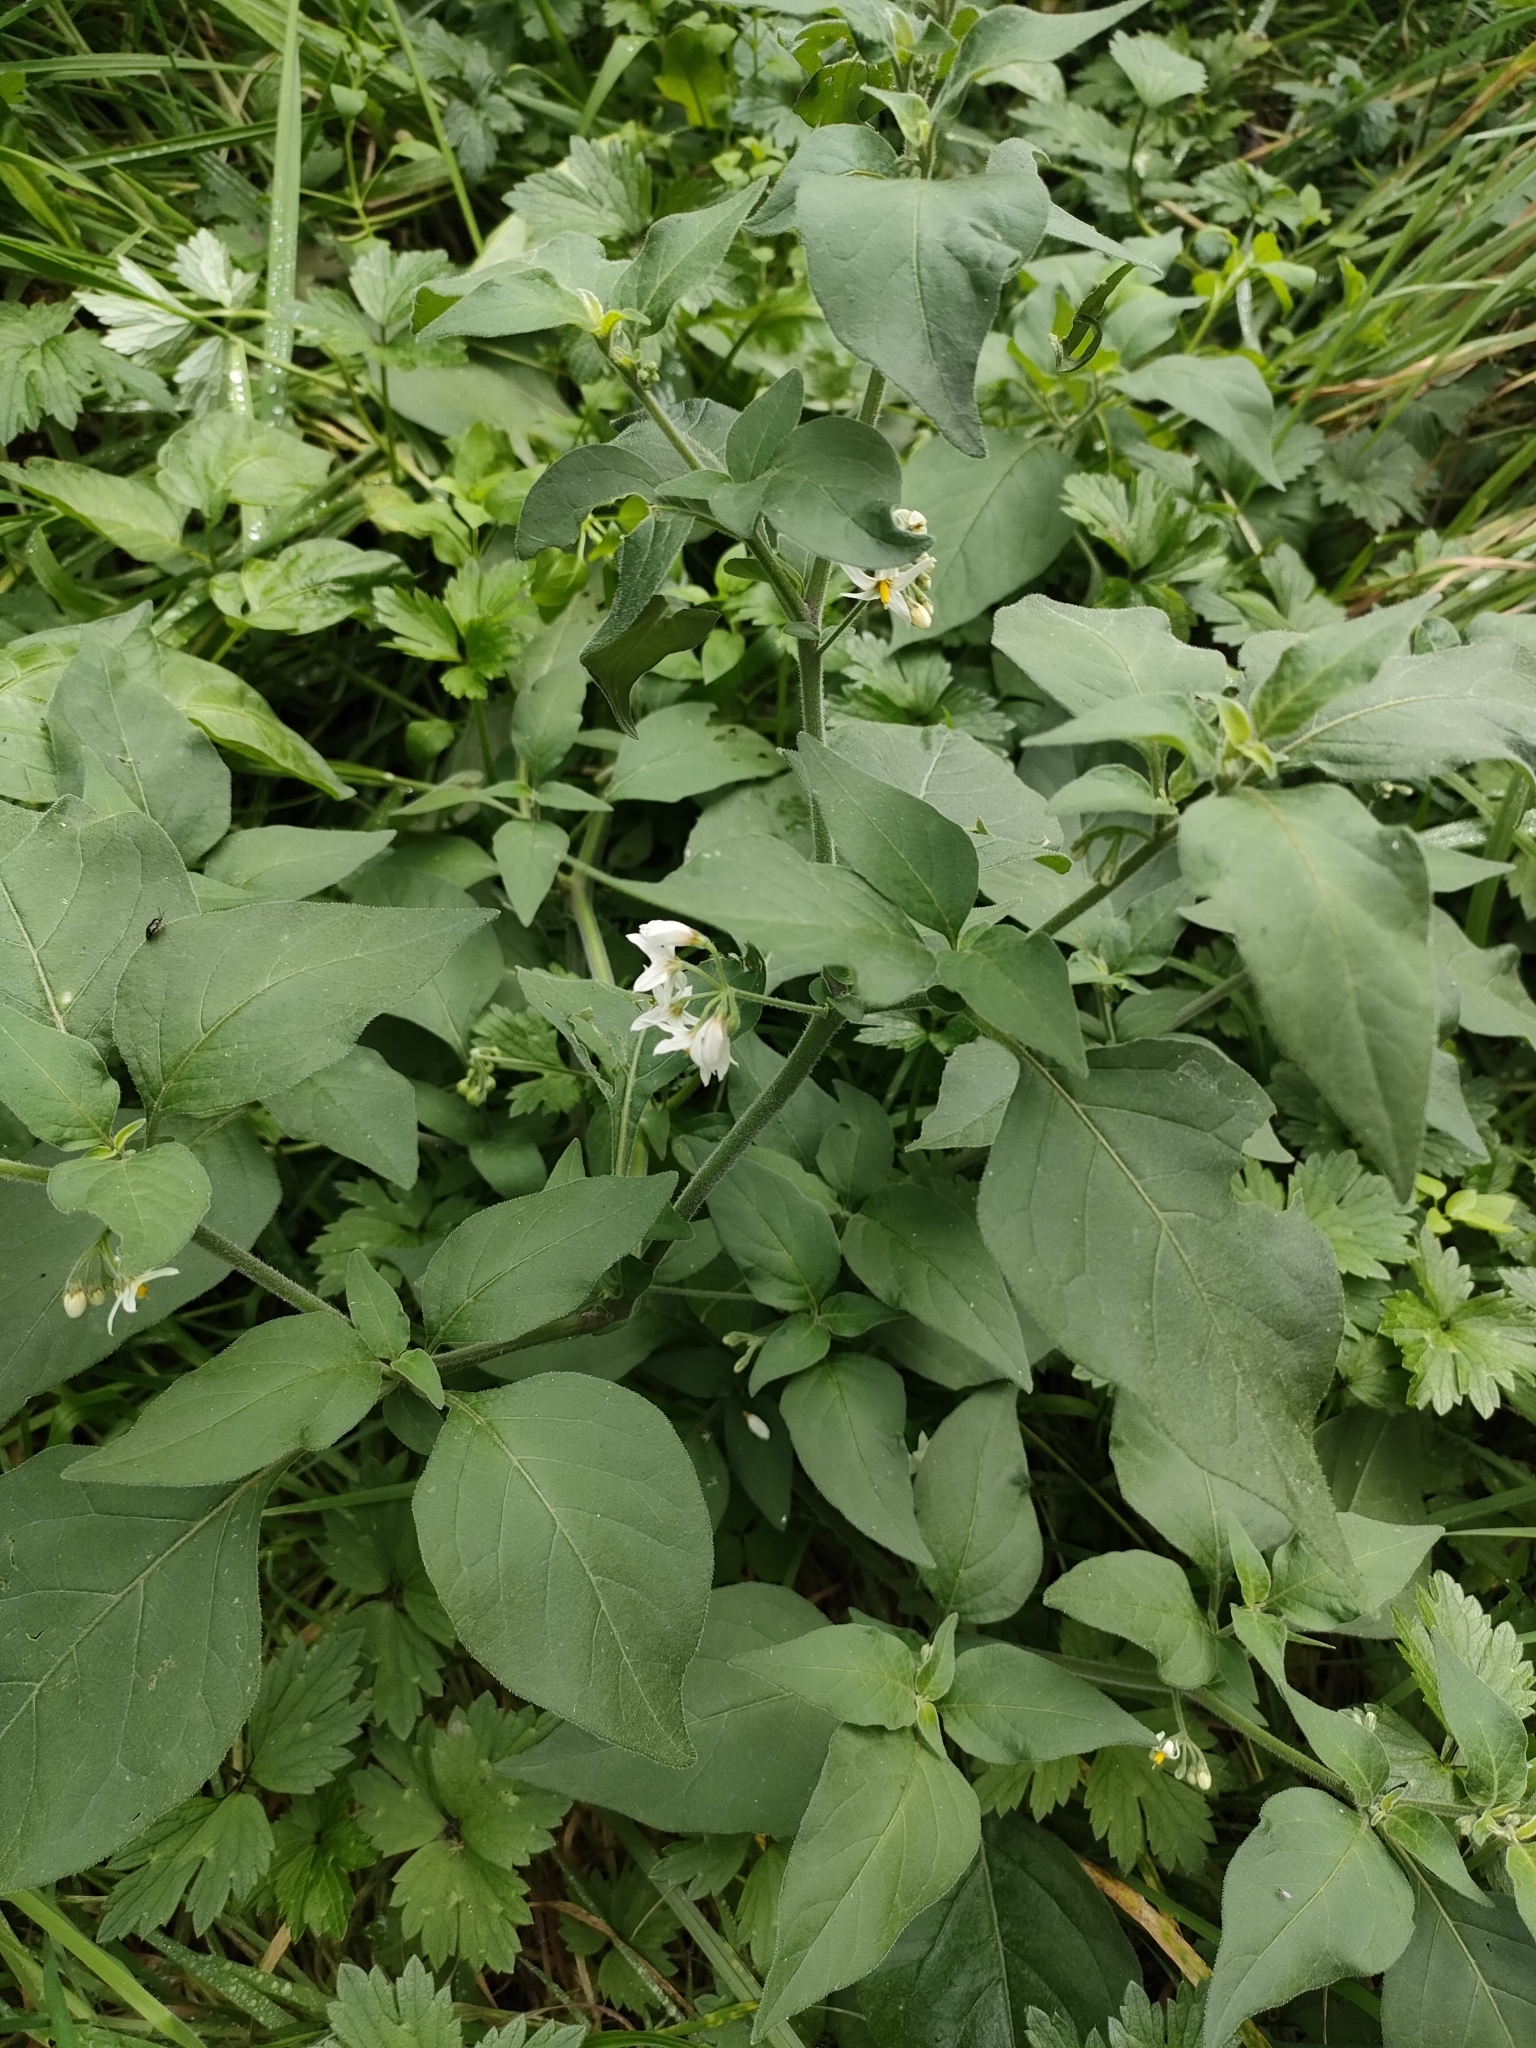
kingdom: Plantae
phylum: Tracheophyta
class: Magnoliopsida
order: Solanales
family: Solanaceae
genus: Solanum
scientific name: Solanum chenopodioides
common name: Tall nightshade
